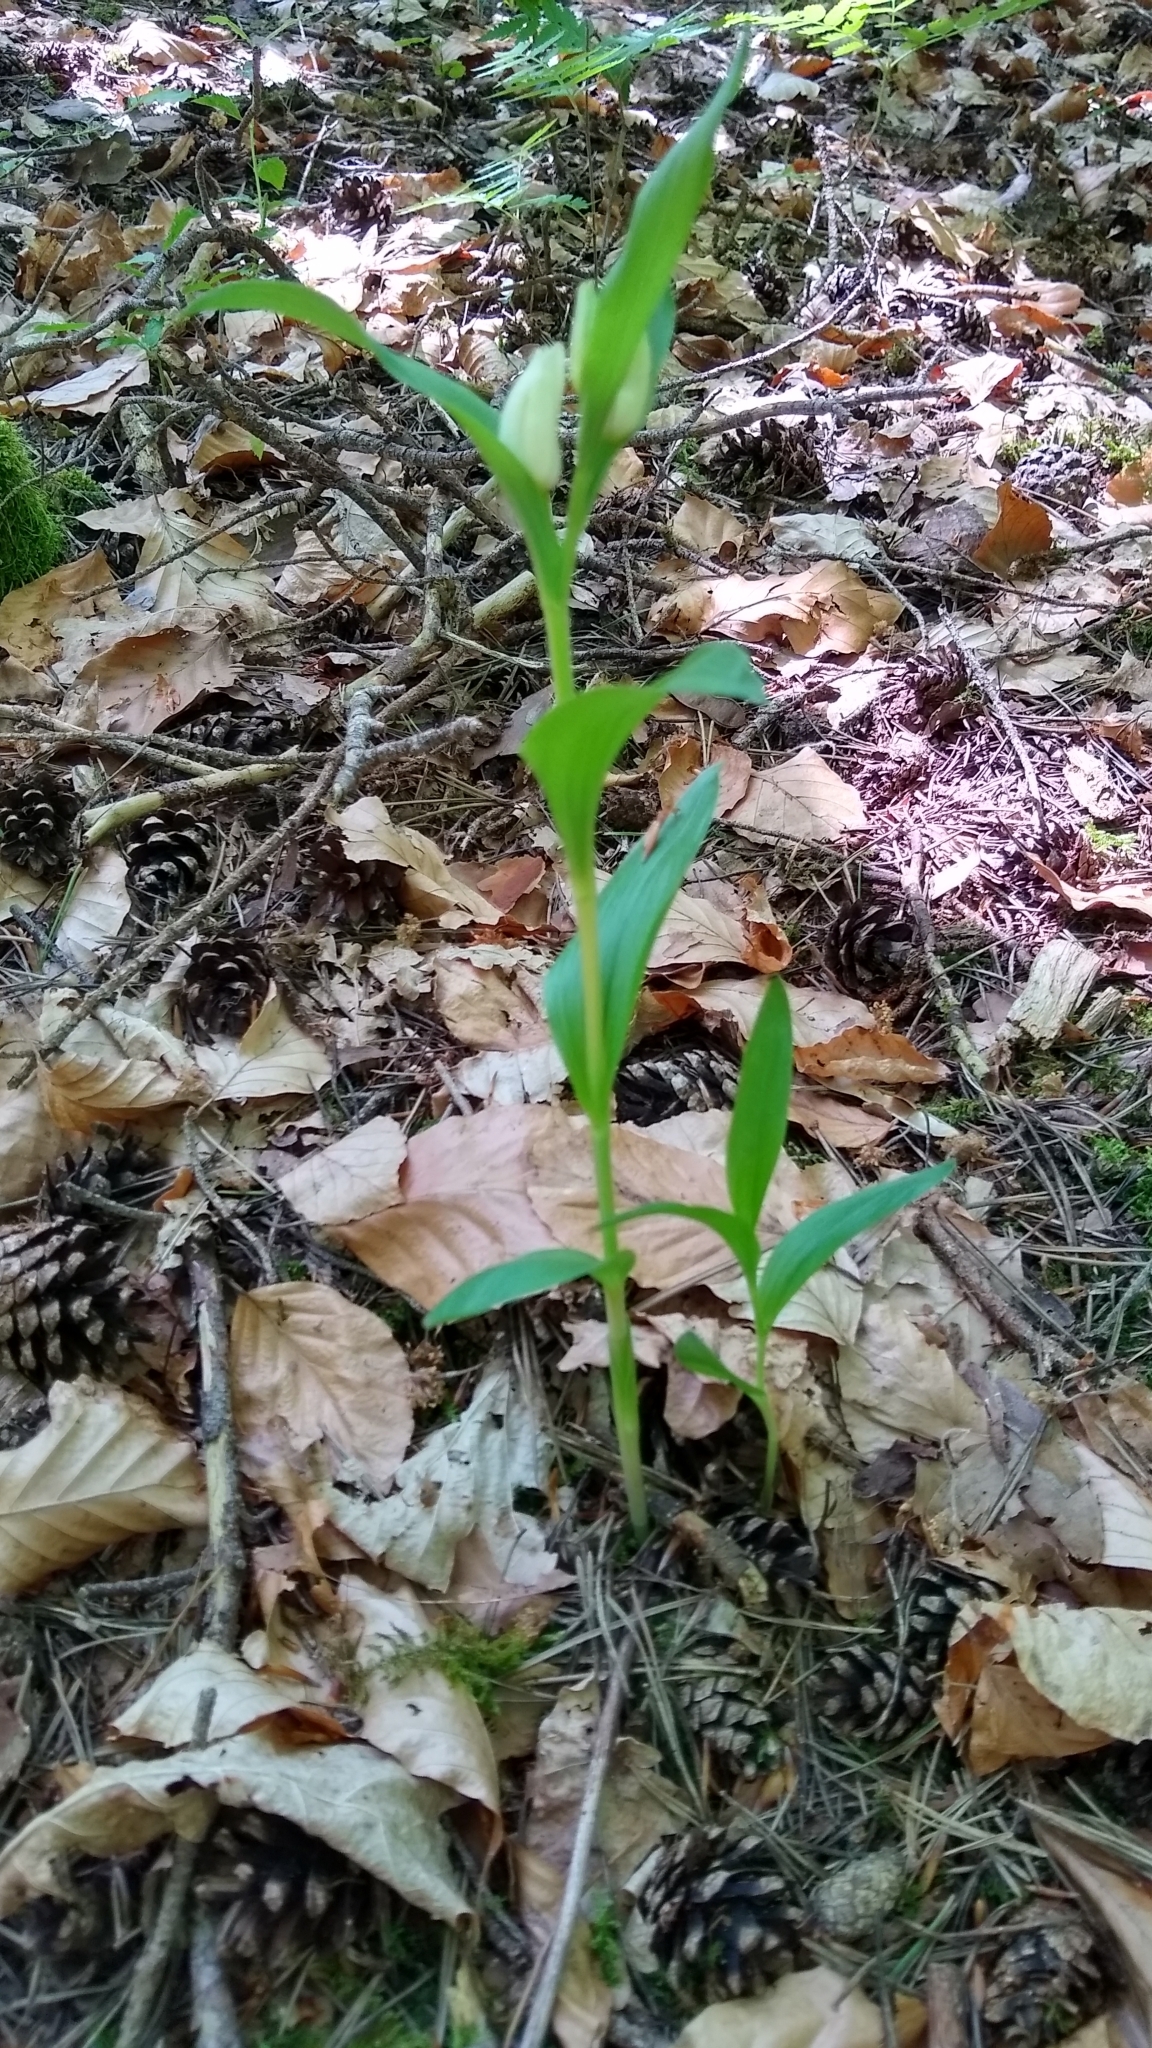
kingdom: Plantae
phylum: Tracheophyta
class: Liliopsida
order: Asparagales
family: Orchidaceae
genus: Cephalanthera
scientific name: Cephalanthera damasonium
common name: White helleborine
